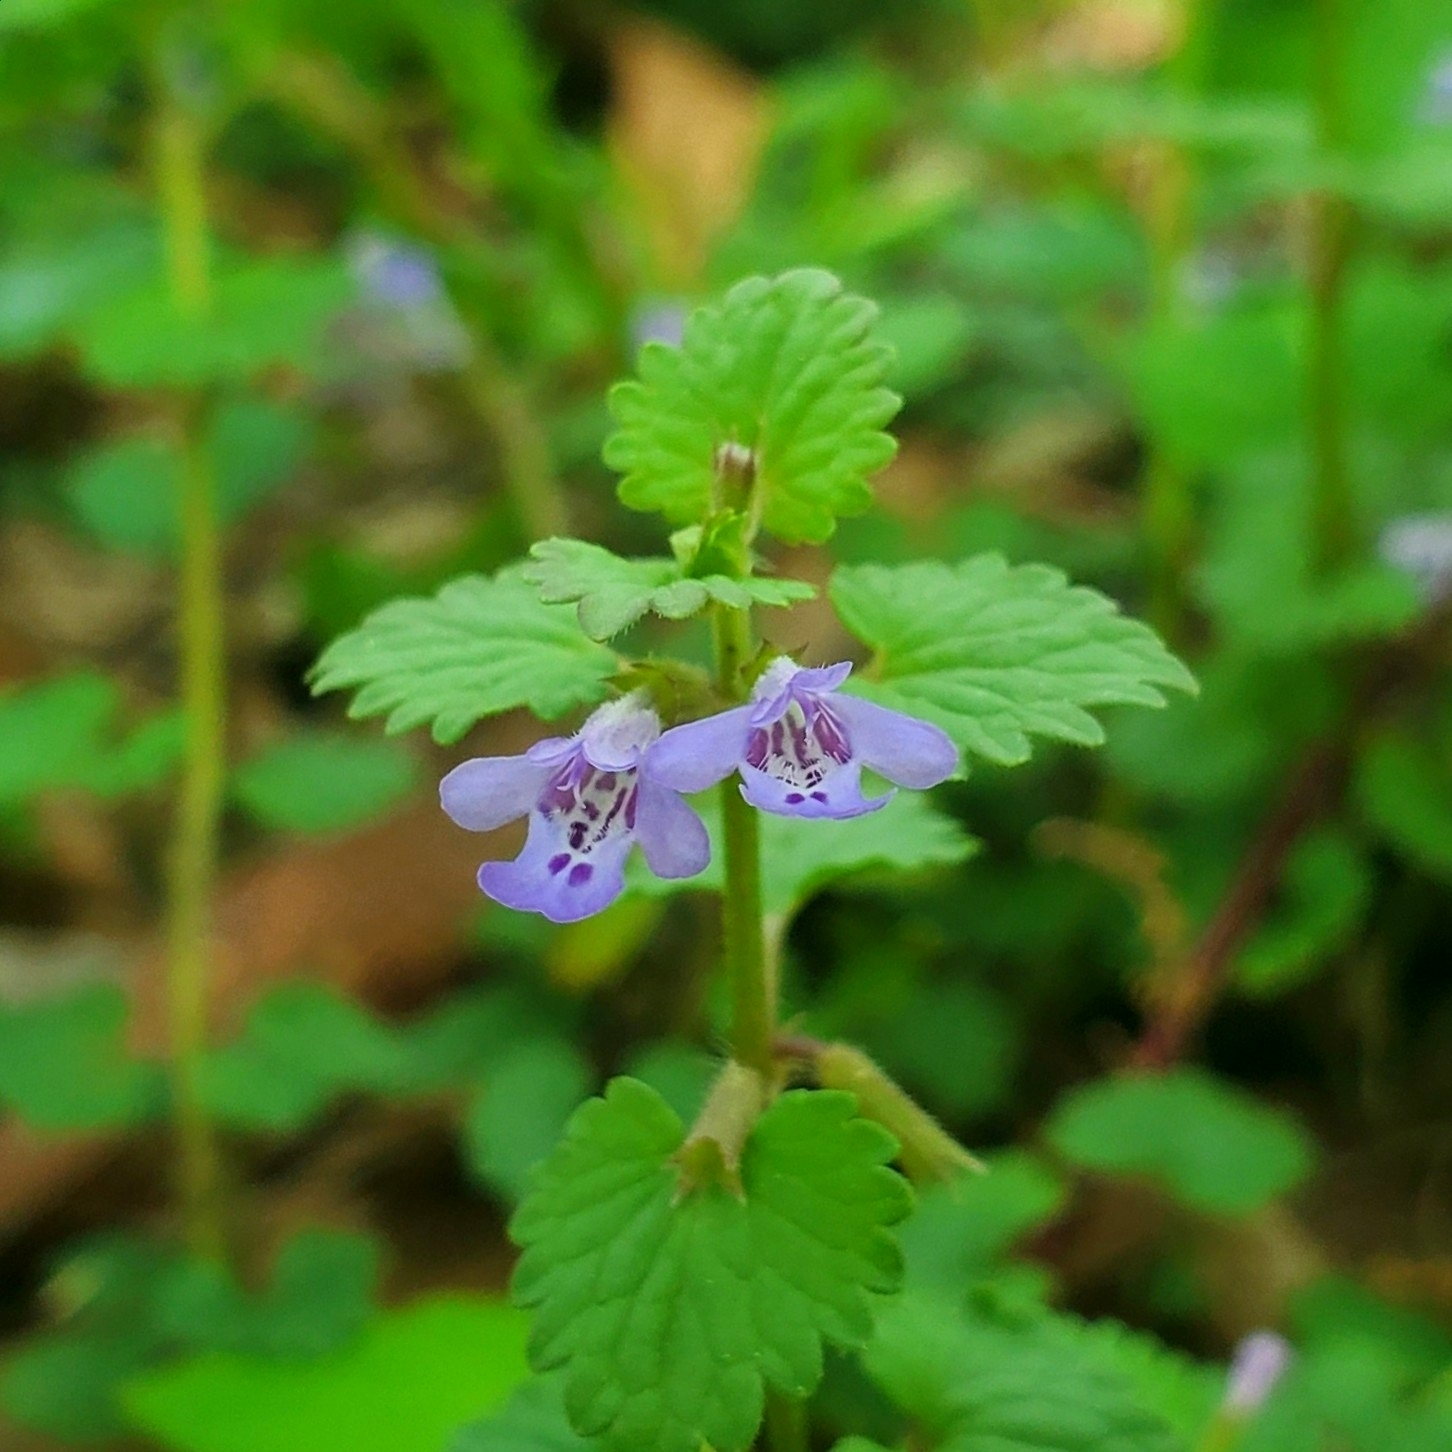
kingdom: Plantae
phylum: Tracheophyta
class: Magnoliopsida
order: Lamiales
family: Lamiaceae
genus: Glechoma
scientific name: Glechoma hederacea
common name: Ground ivy
